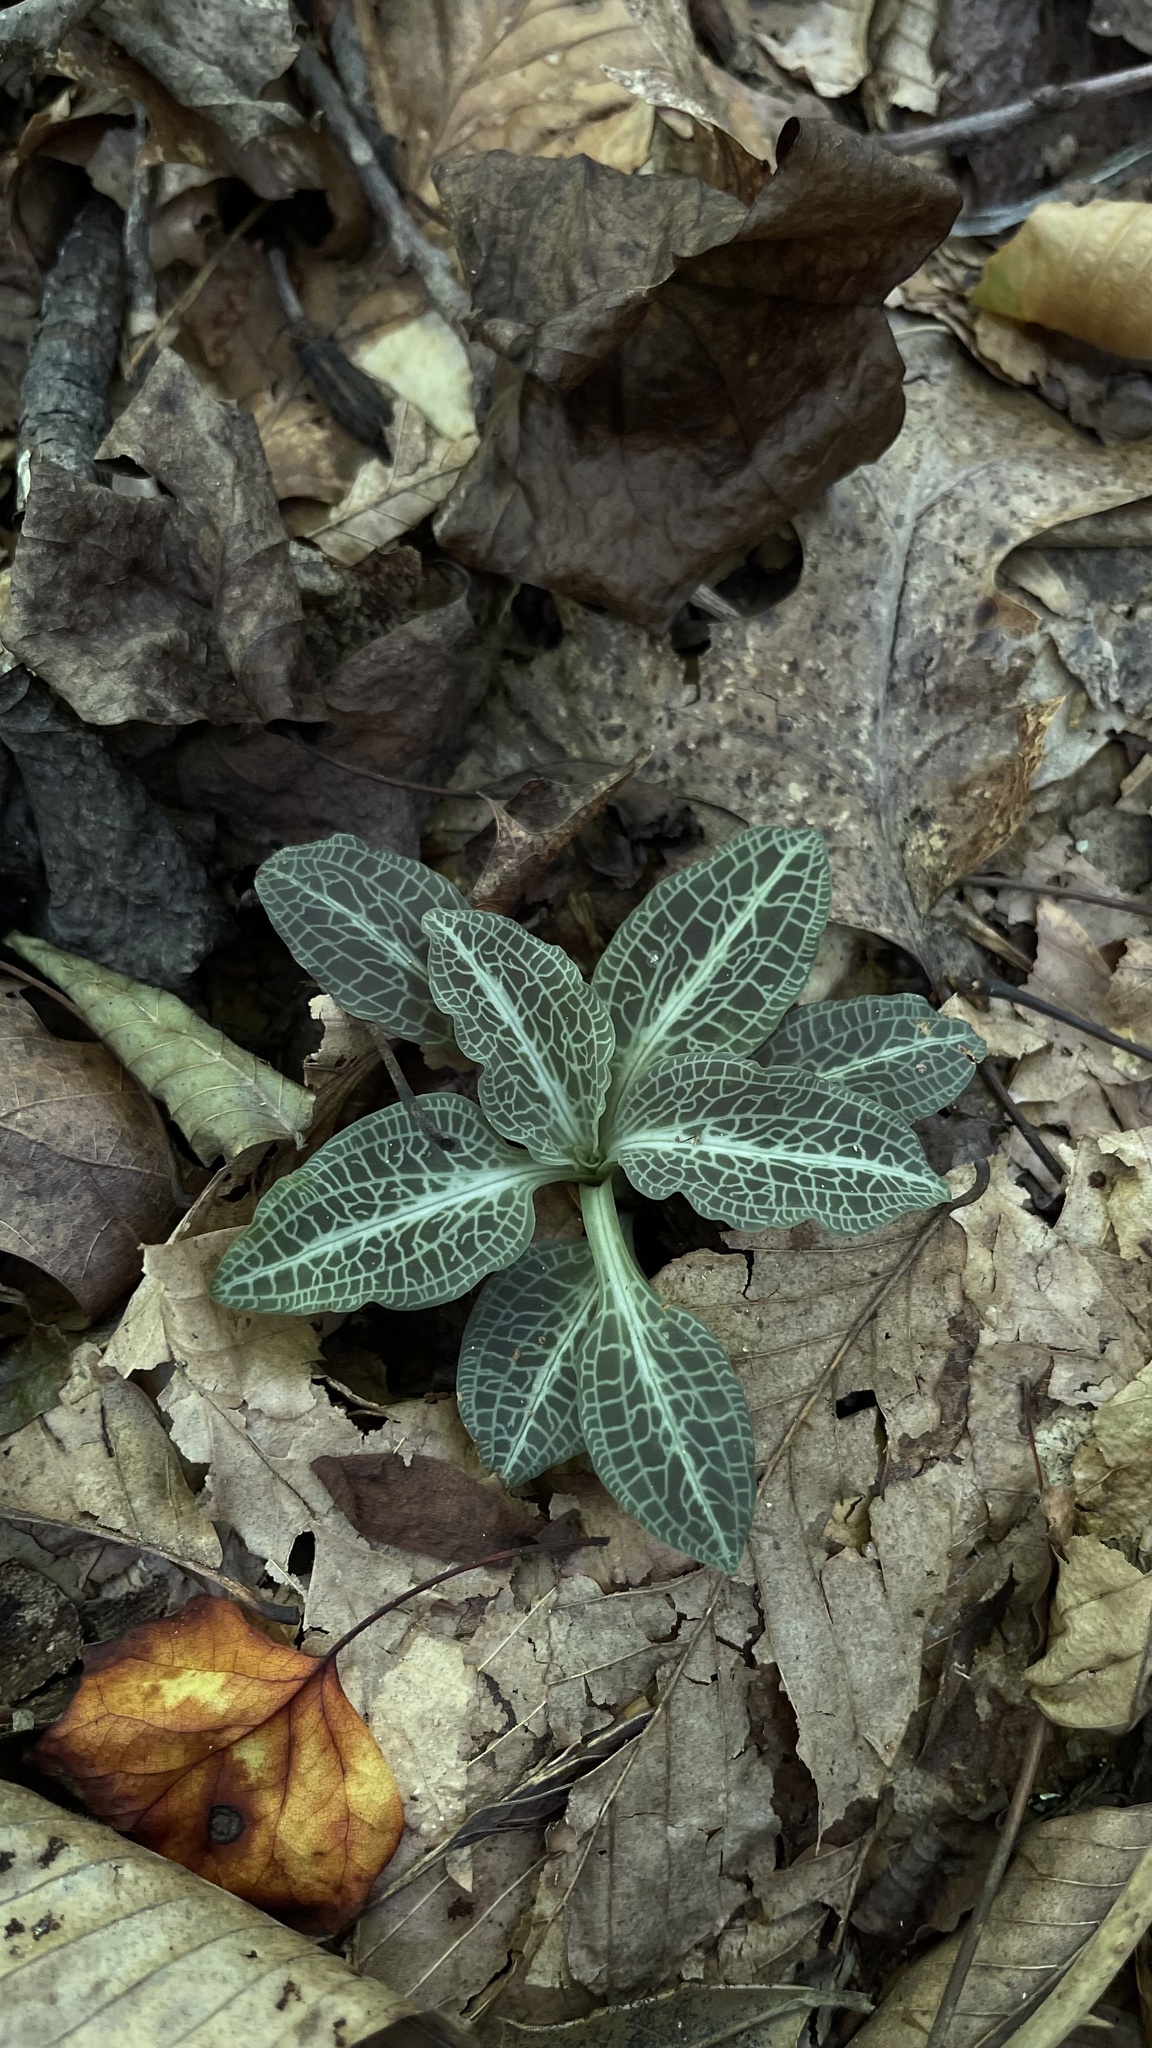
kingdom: Plantae
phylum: Tracheophyta
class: Liliopsida
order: Asparagales
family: Orchidaceae
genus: Goodyera
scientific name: Goodyera pubescens
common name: Downy rattlesnake-plantain
